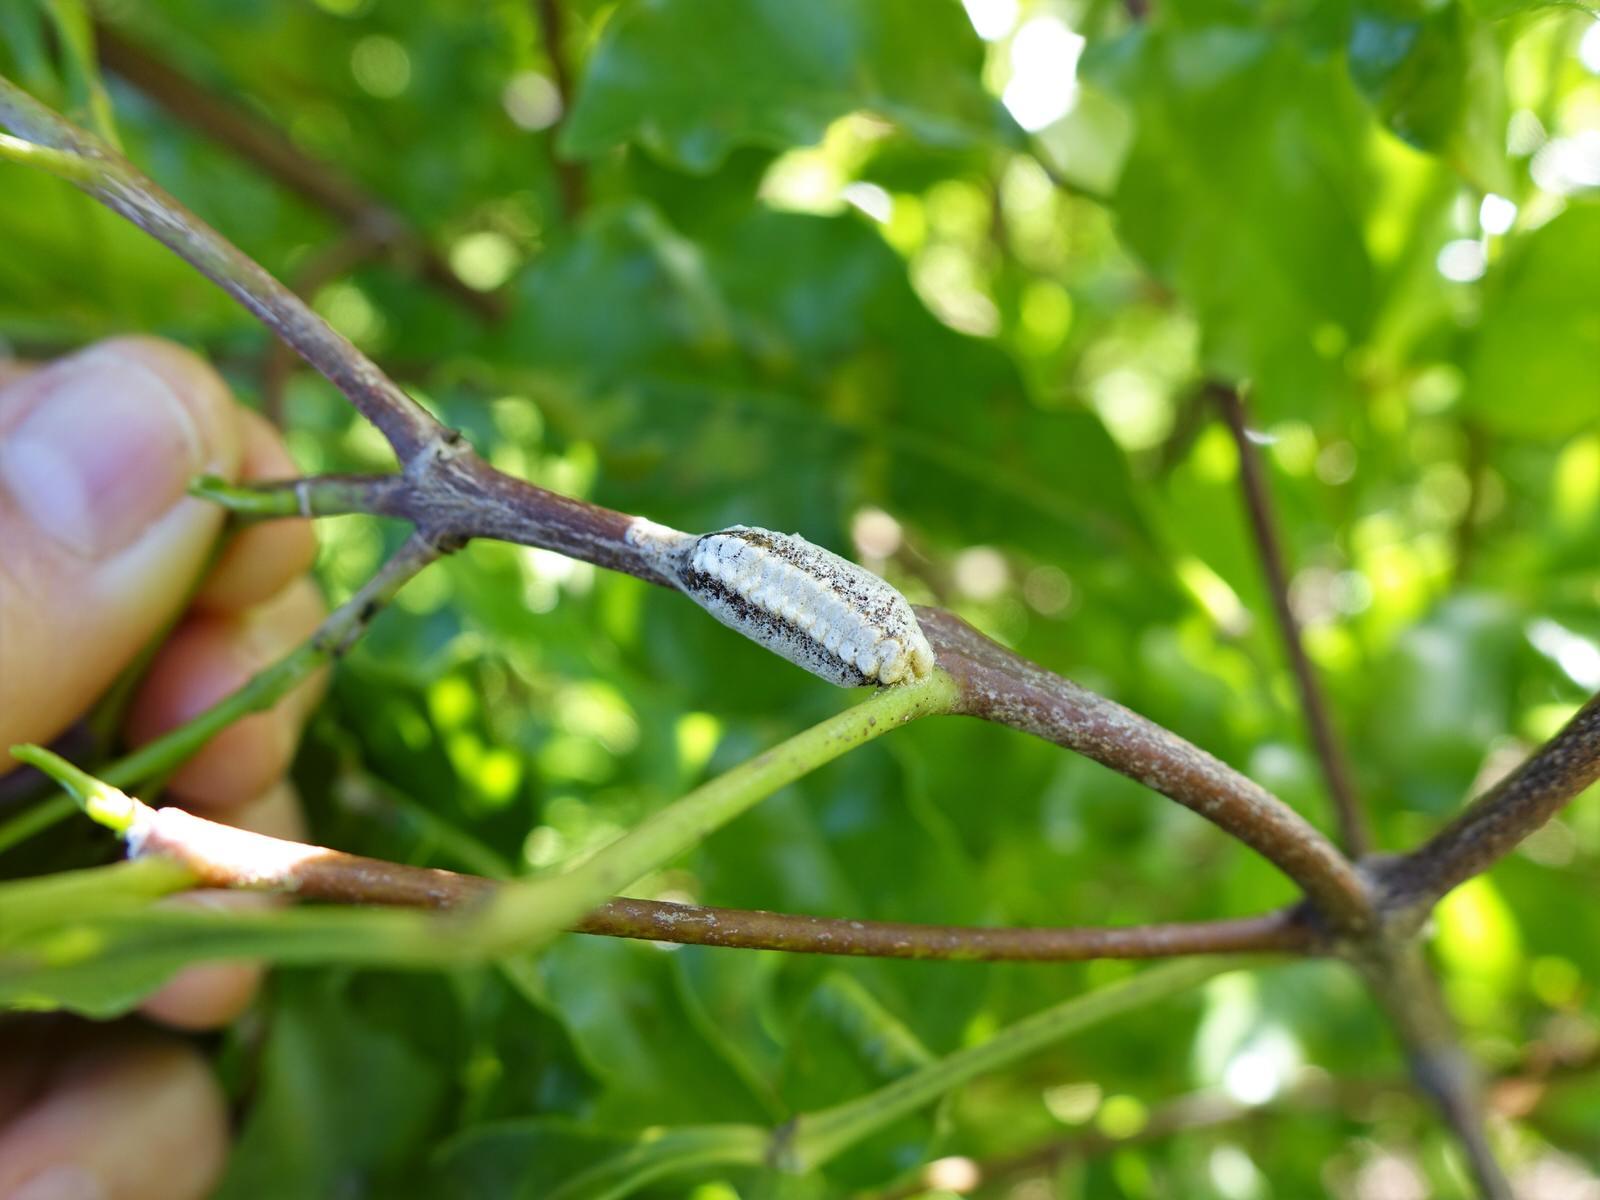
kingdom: Animalia
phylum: Arthropoda
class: Insecta
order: Mantodea
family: Mantidae
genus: Orthodera
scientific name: Orthodera novaezealandiae
